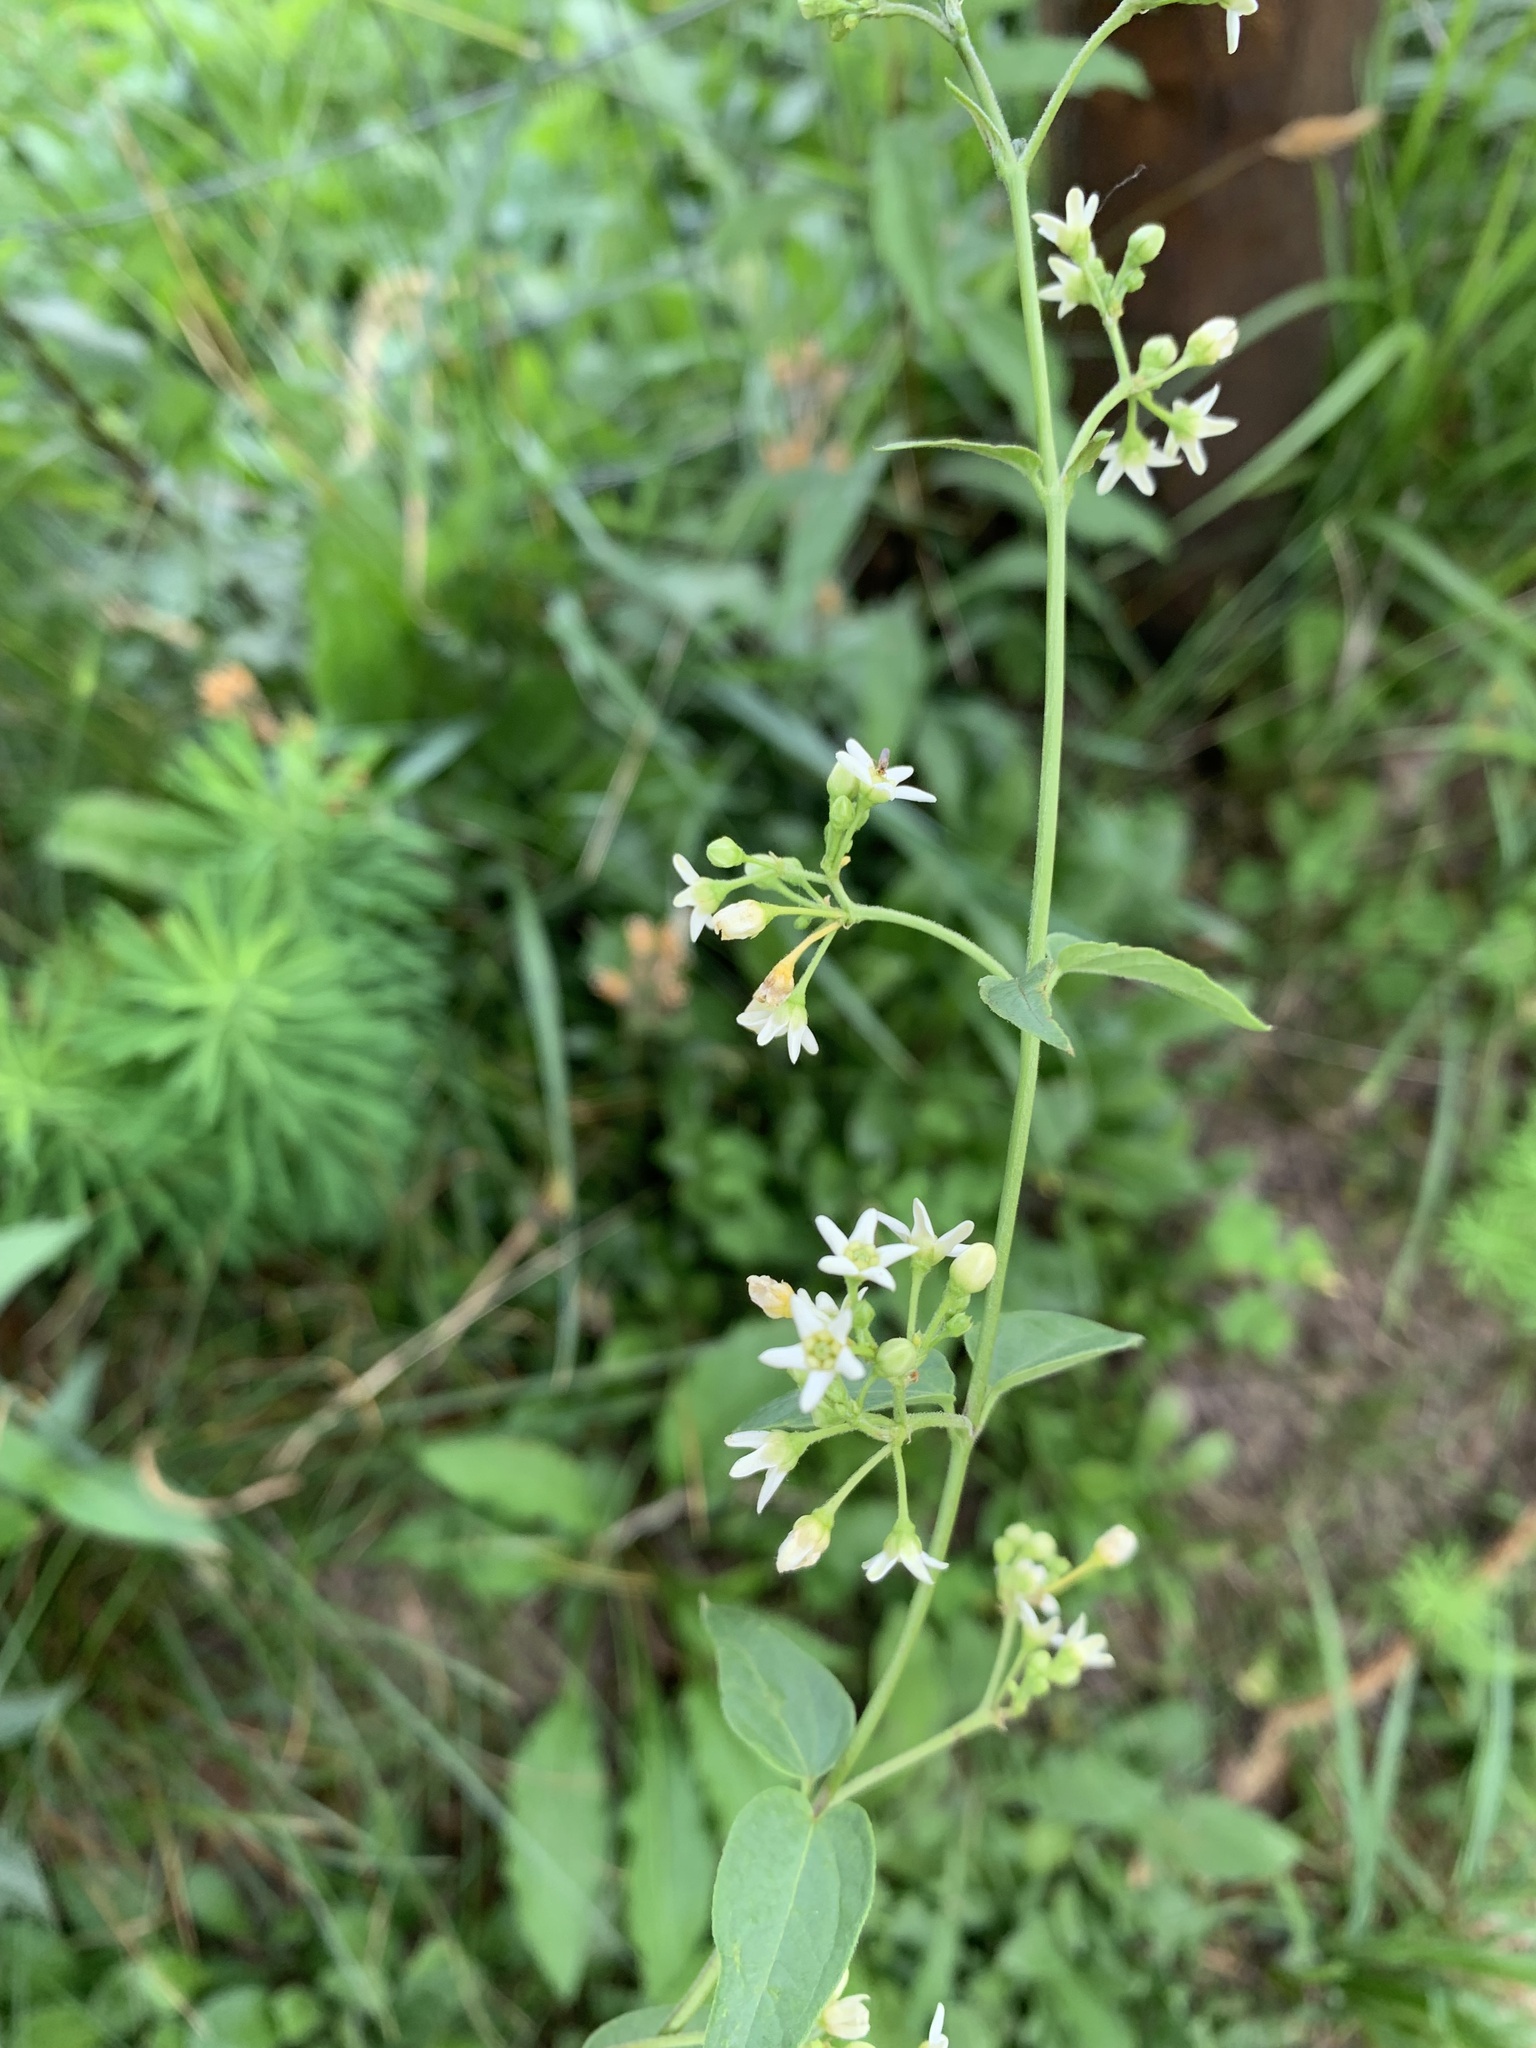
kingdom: Plantae
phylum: Tracheophyta
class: Magnoliopsida
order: Gentianales
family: Apocynaceae
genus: Vincetoxicum
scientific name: Vincetoxicum hirundinaria
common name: White swallowwort
